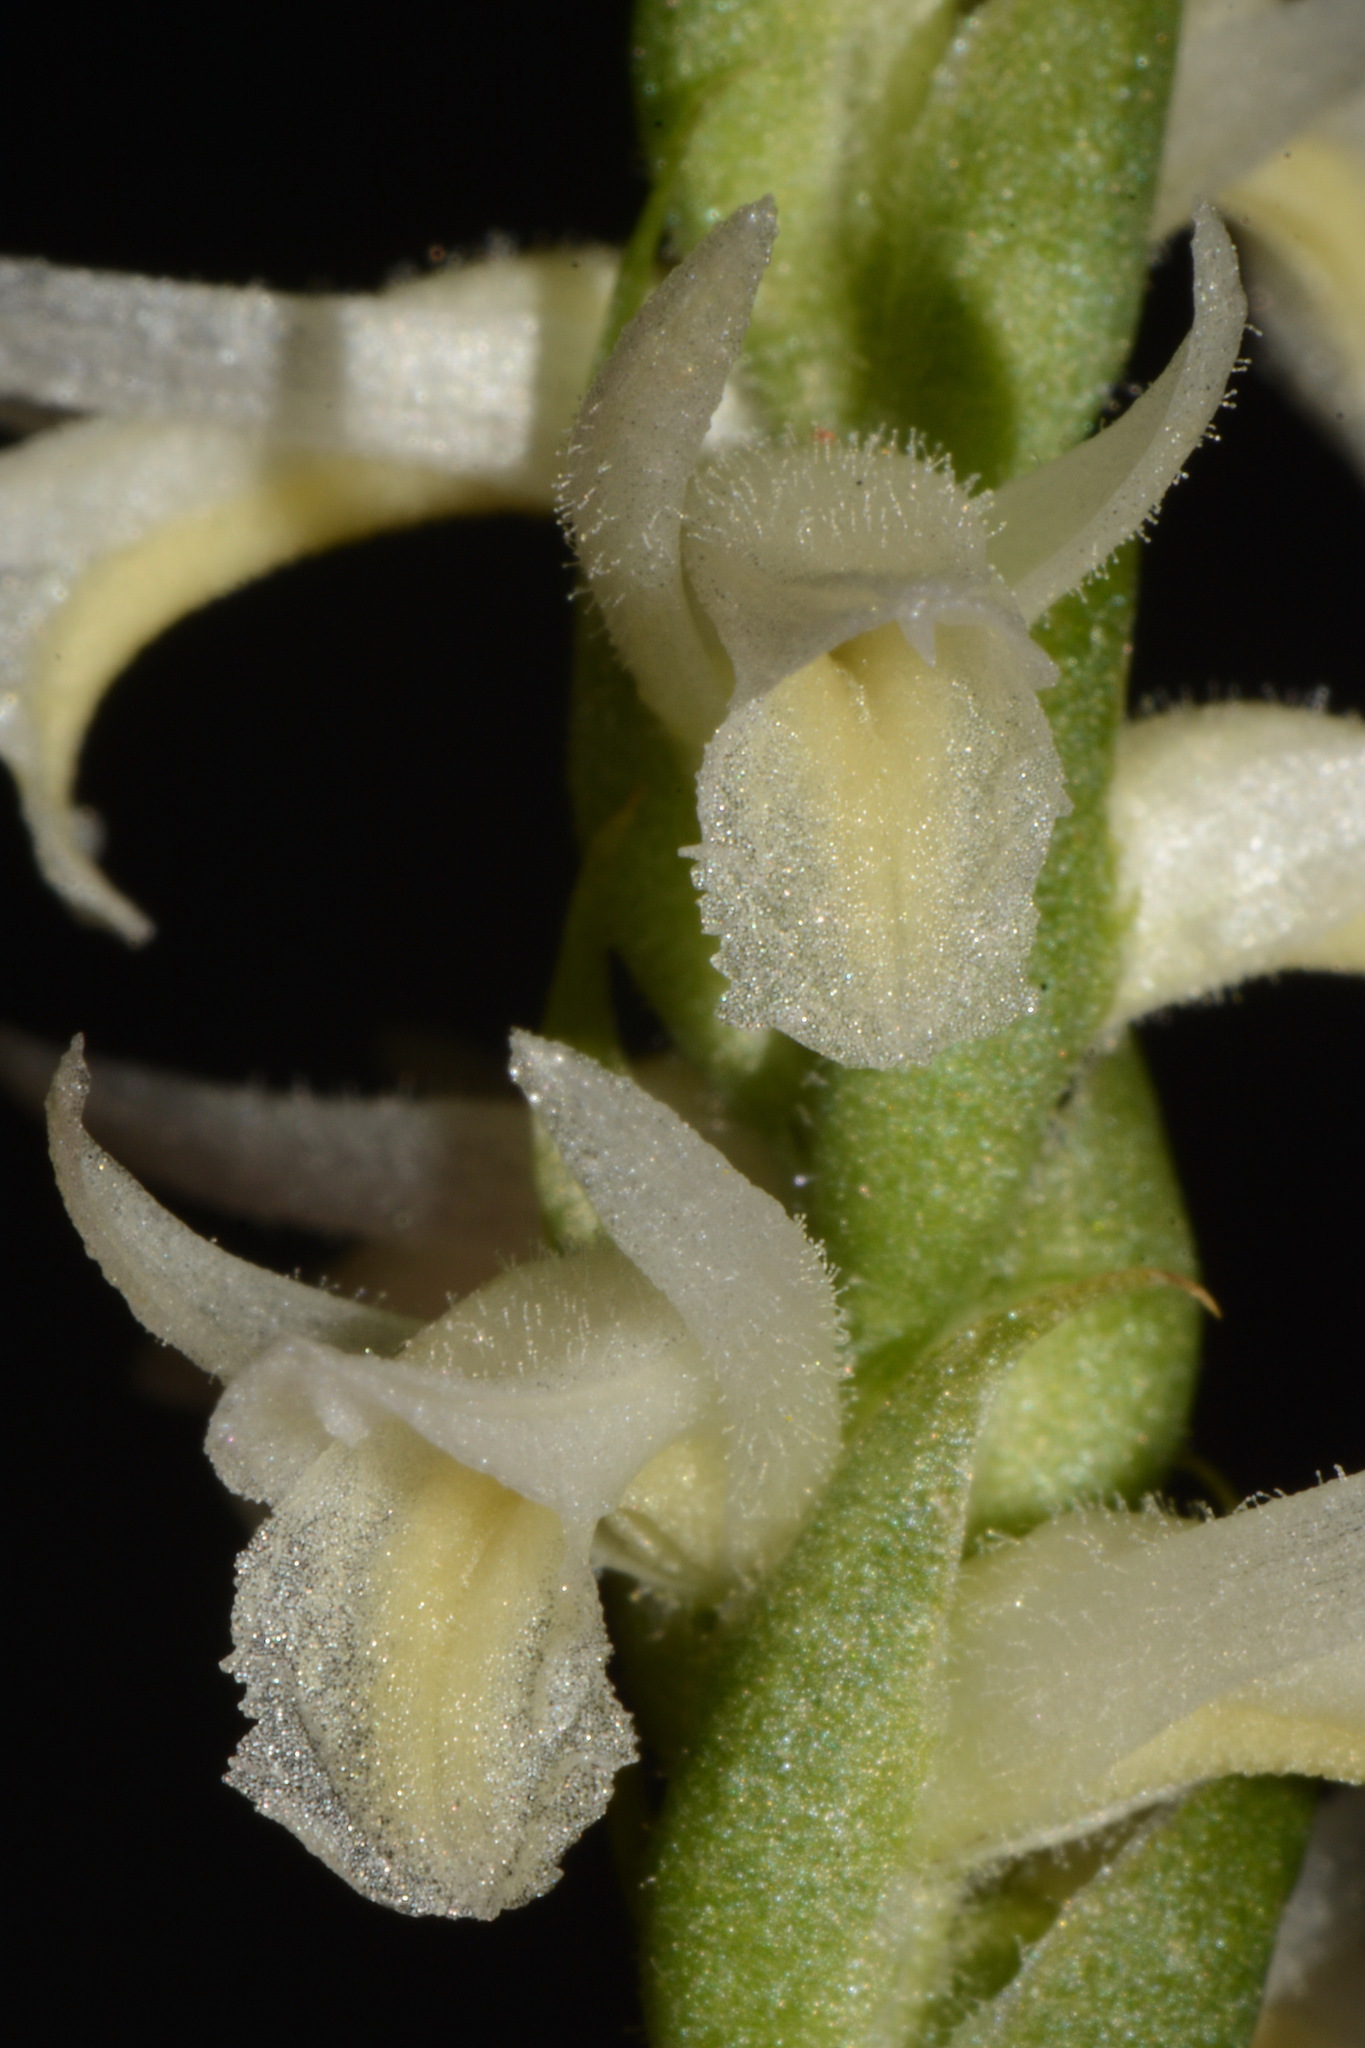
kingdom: Plantae
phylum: Tracheophyta
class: Liliopsida
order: Asparagales
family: Orchidaceae
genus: Spiranthes
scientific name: Spiranthes magnicamporum
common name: Great plains ladies'-tresses
